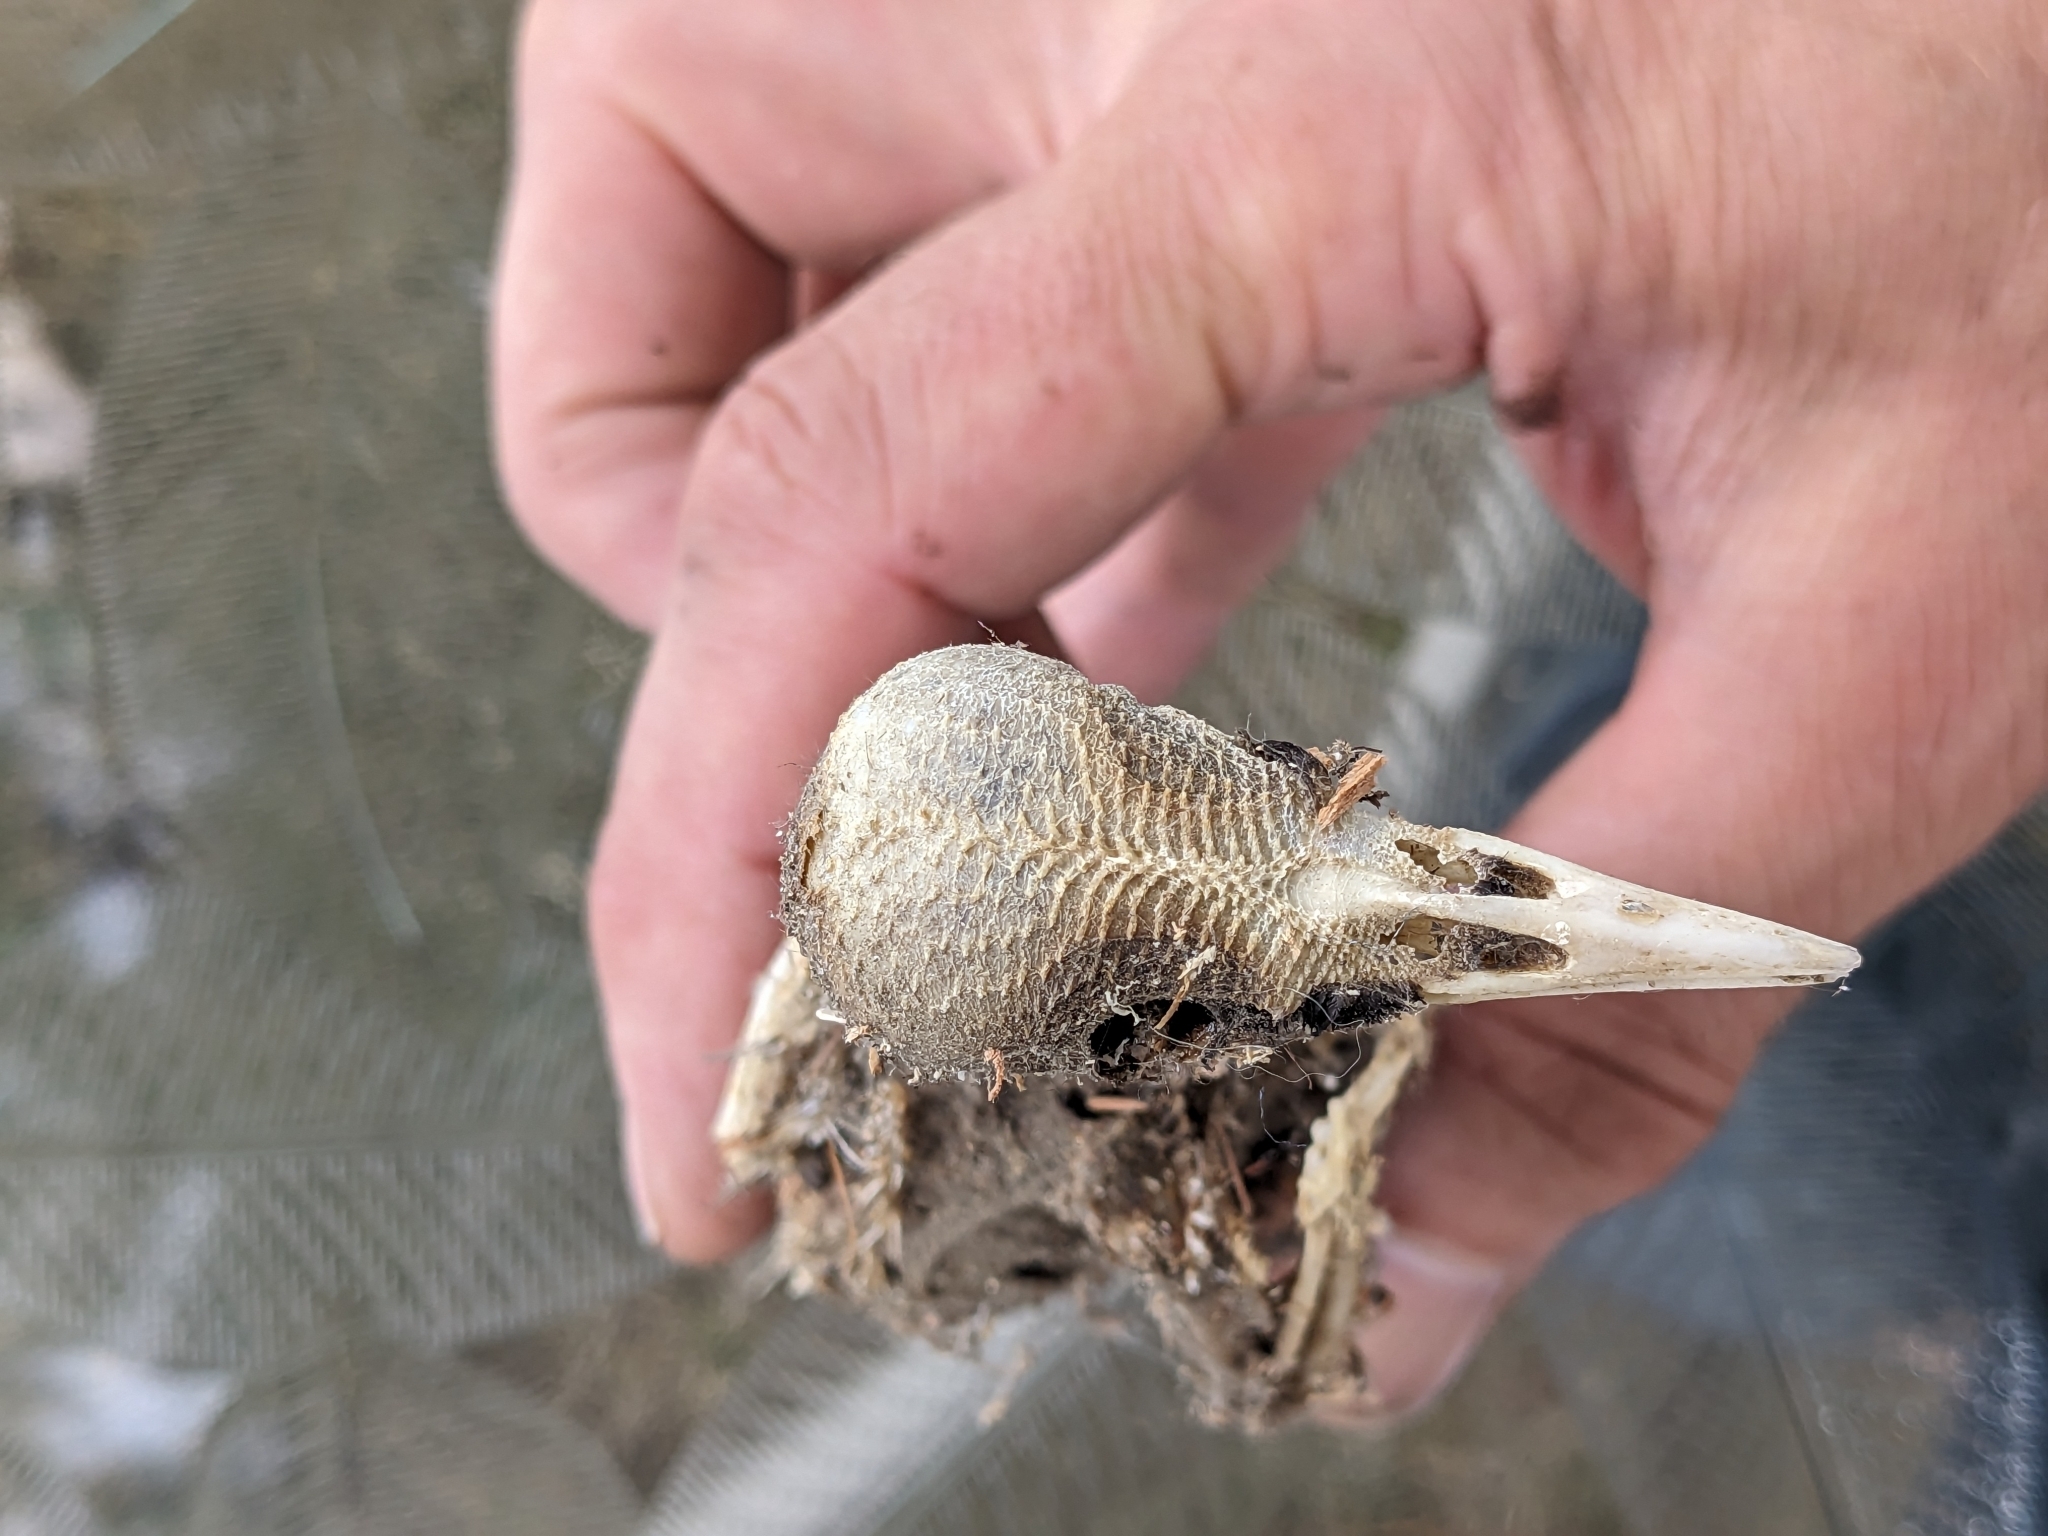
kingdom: Animalia
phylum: Chordata
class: Aves
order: Passeriformes
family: Sturnidae
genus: Sturnus
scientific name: Sturnus vulgaris
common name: Common starling
